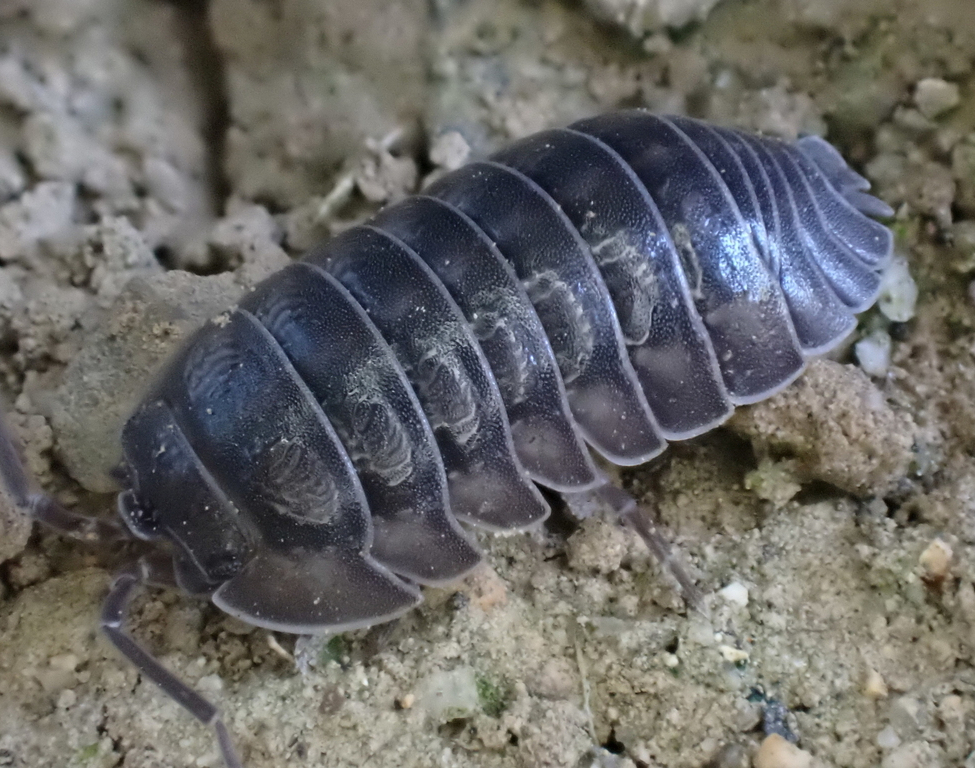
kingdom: Animalia
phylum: Arthropoda
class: Malacostraca
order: Isopoda
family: Armadillidiidae
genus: Armadillidium
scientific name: Armadillidium nasatum
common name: Isopod
